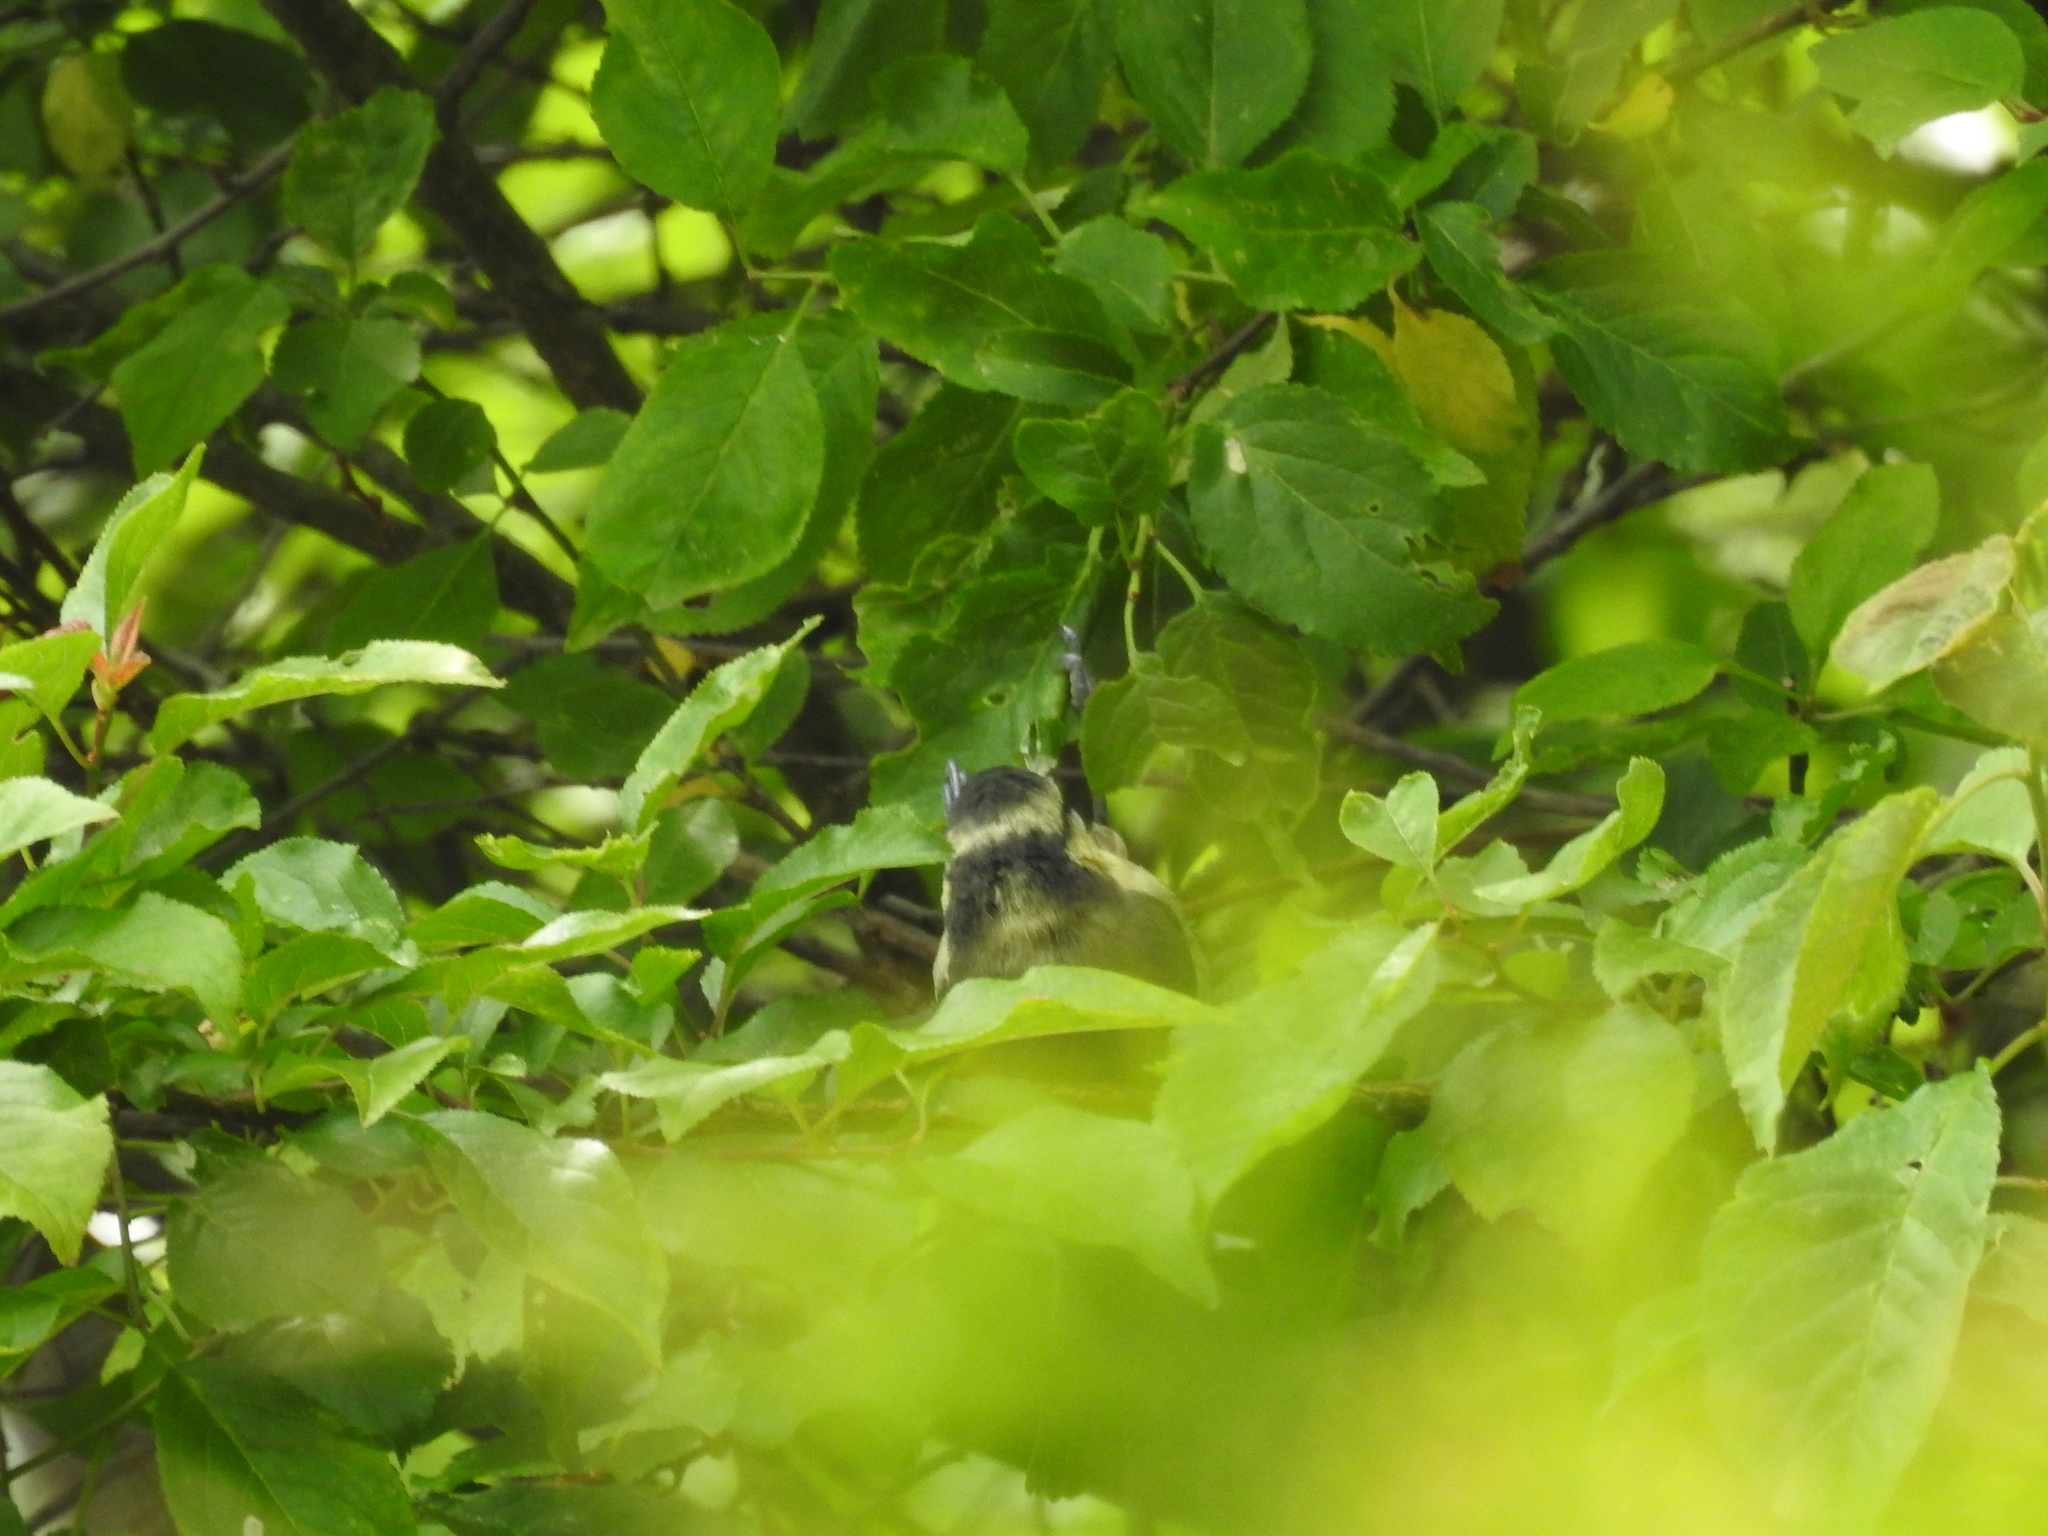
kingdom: Animalia
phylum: Chordata
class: Aves
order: Passeriformes
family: Paridae
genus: Cyanistes
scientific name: Cyanistes caeruleus
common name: Eurasian blue tit
